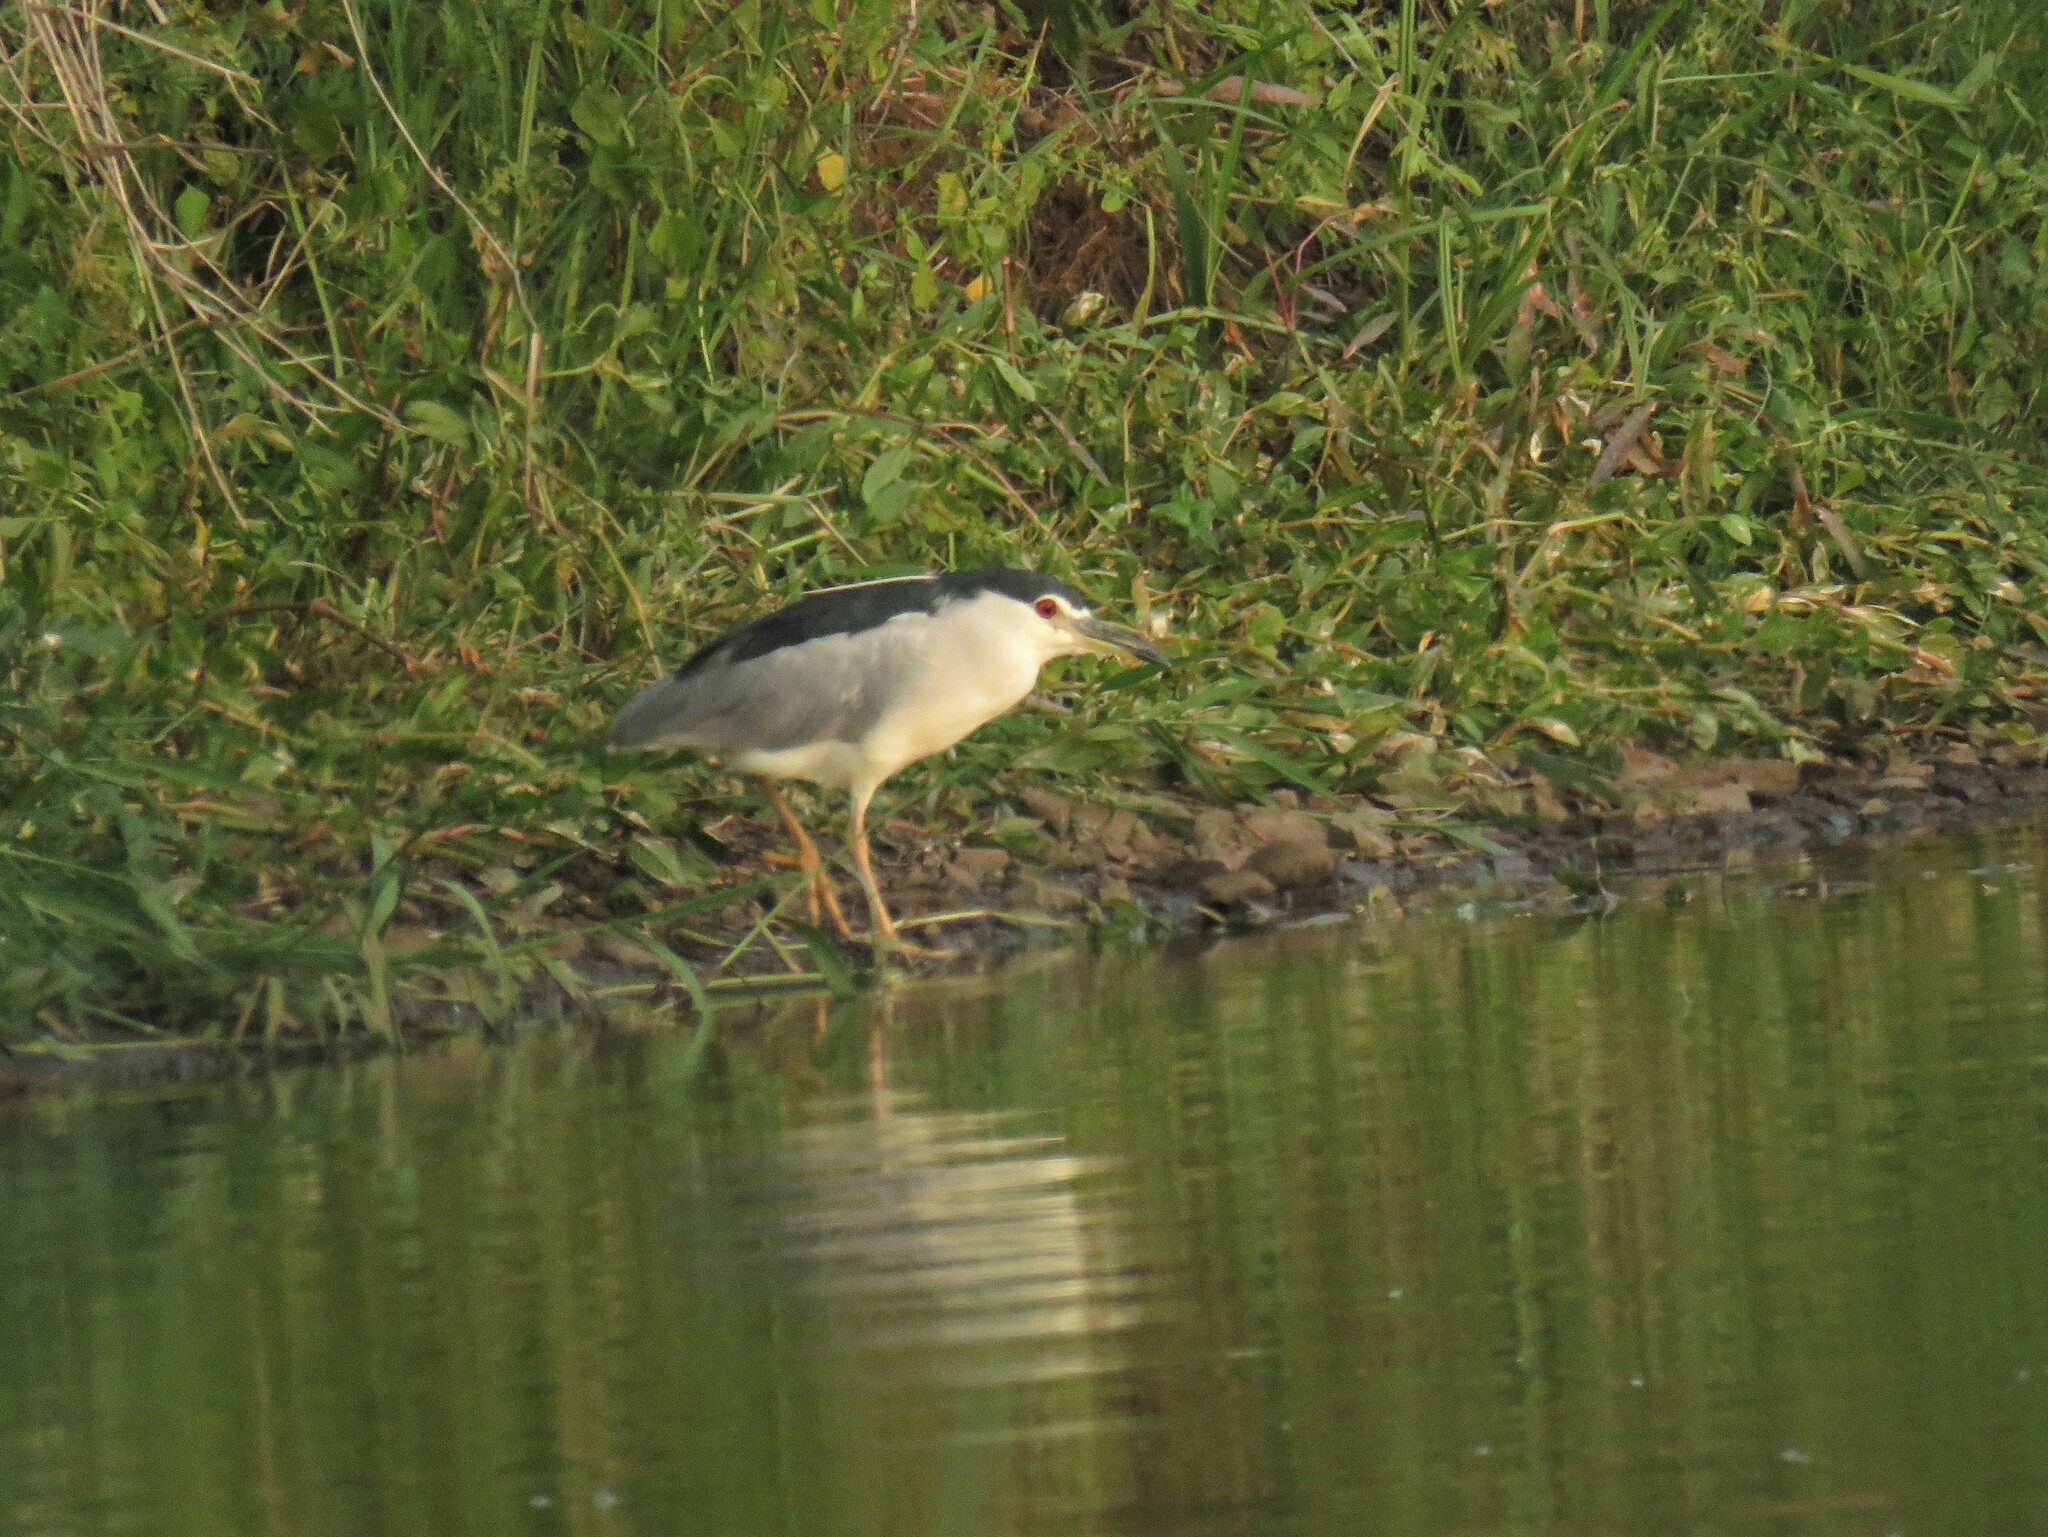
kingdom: Animalia
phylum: Chordata
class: Aves
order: Pelecaniformes
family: Ardeidae
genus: Nycticorax
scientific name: Nycticorax nycticorax
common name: Black-crowned night heron
